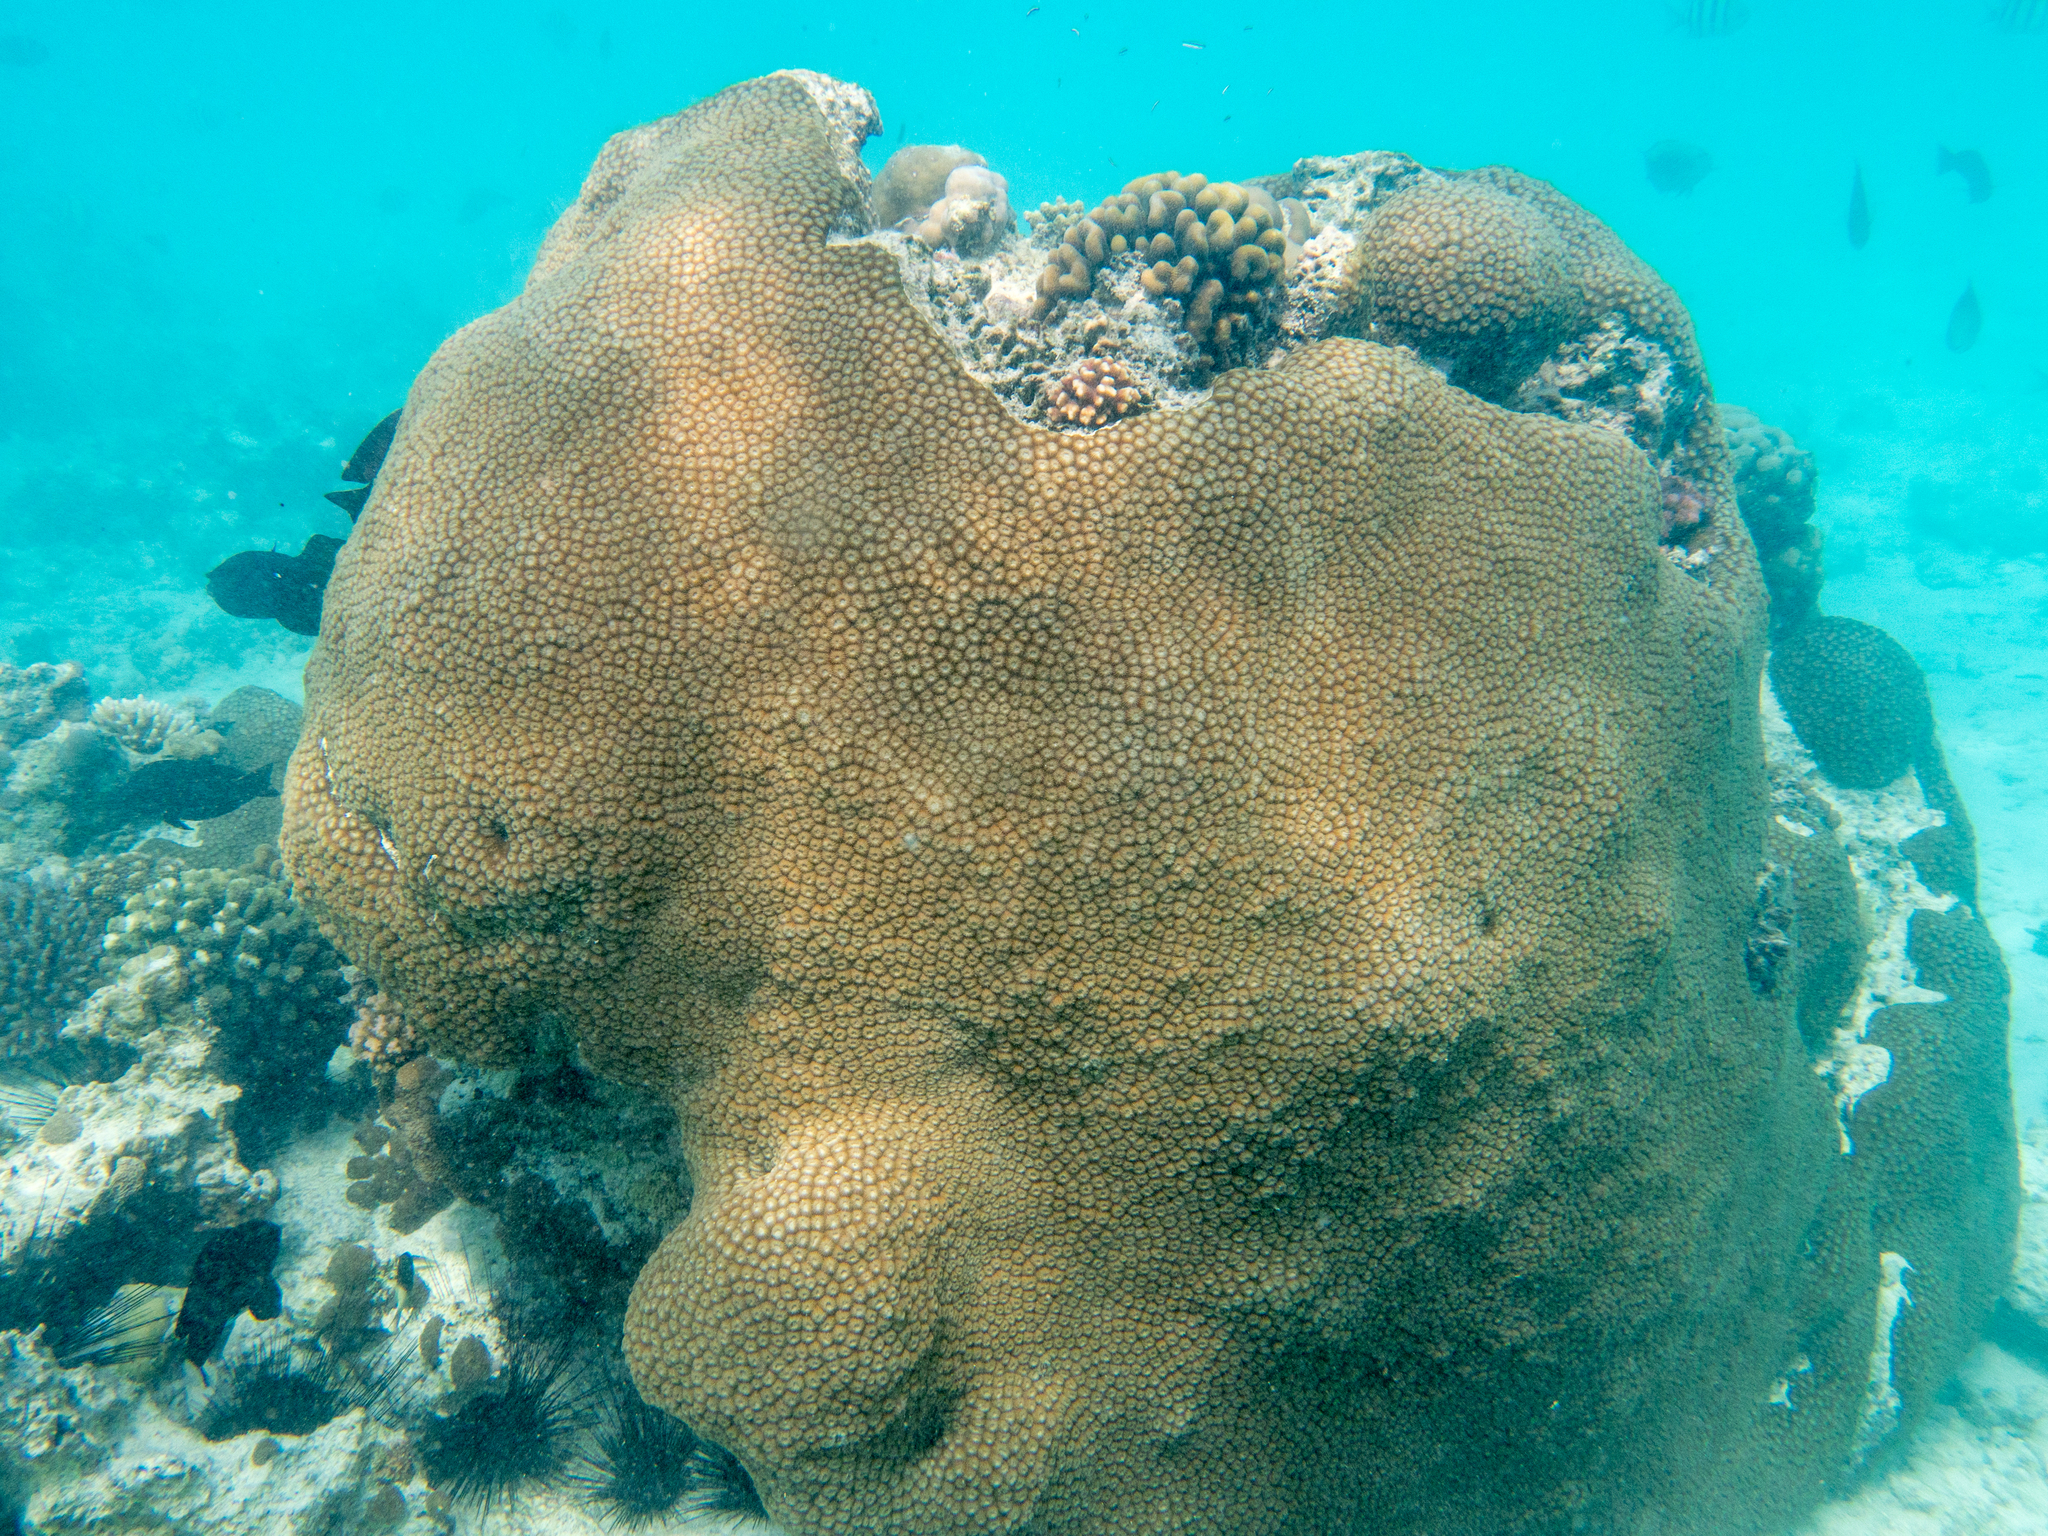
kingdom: Animalia
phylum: Cnidaria
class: Anthozoa
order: Scleractinia
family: Diploastraeidae
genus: Diploastrea
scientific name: Diploastrea heliopora
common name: Double-star coral
